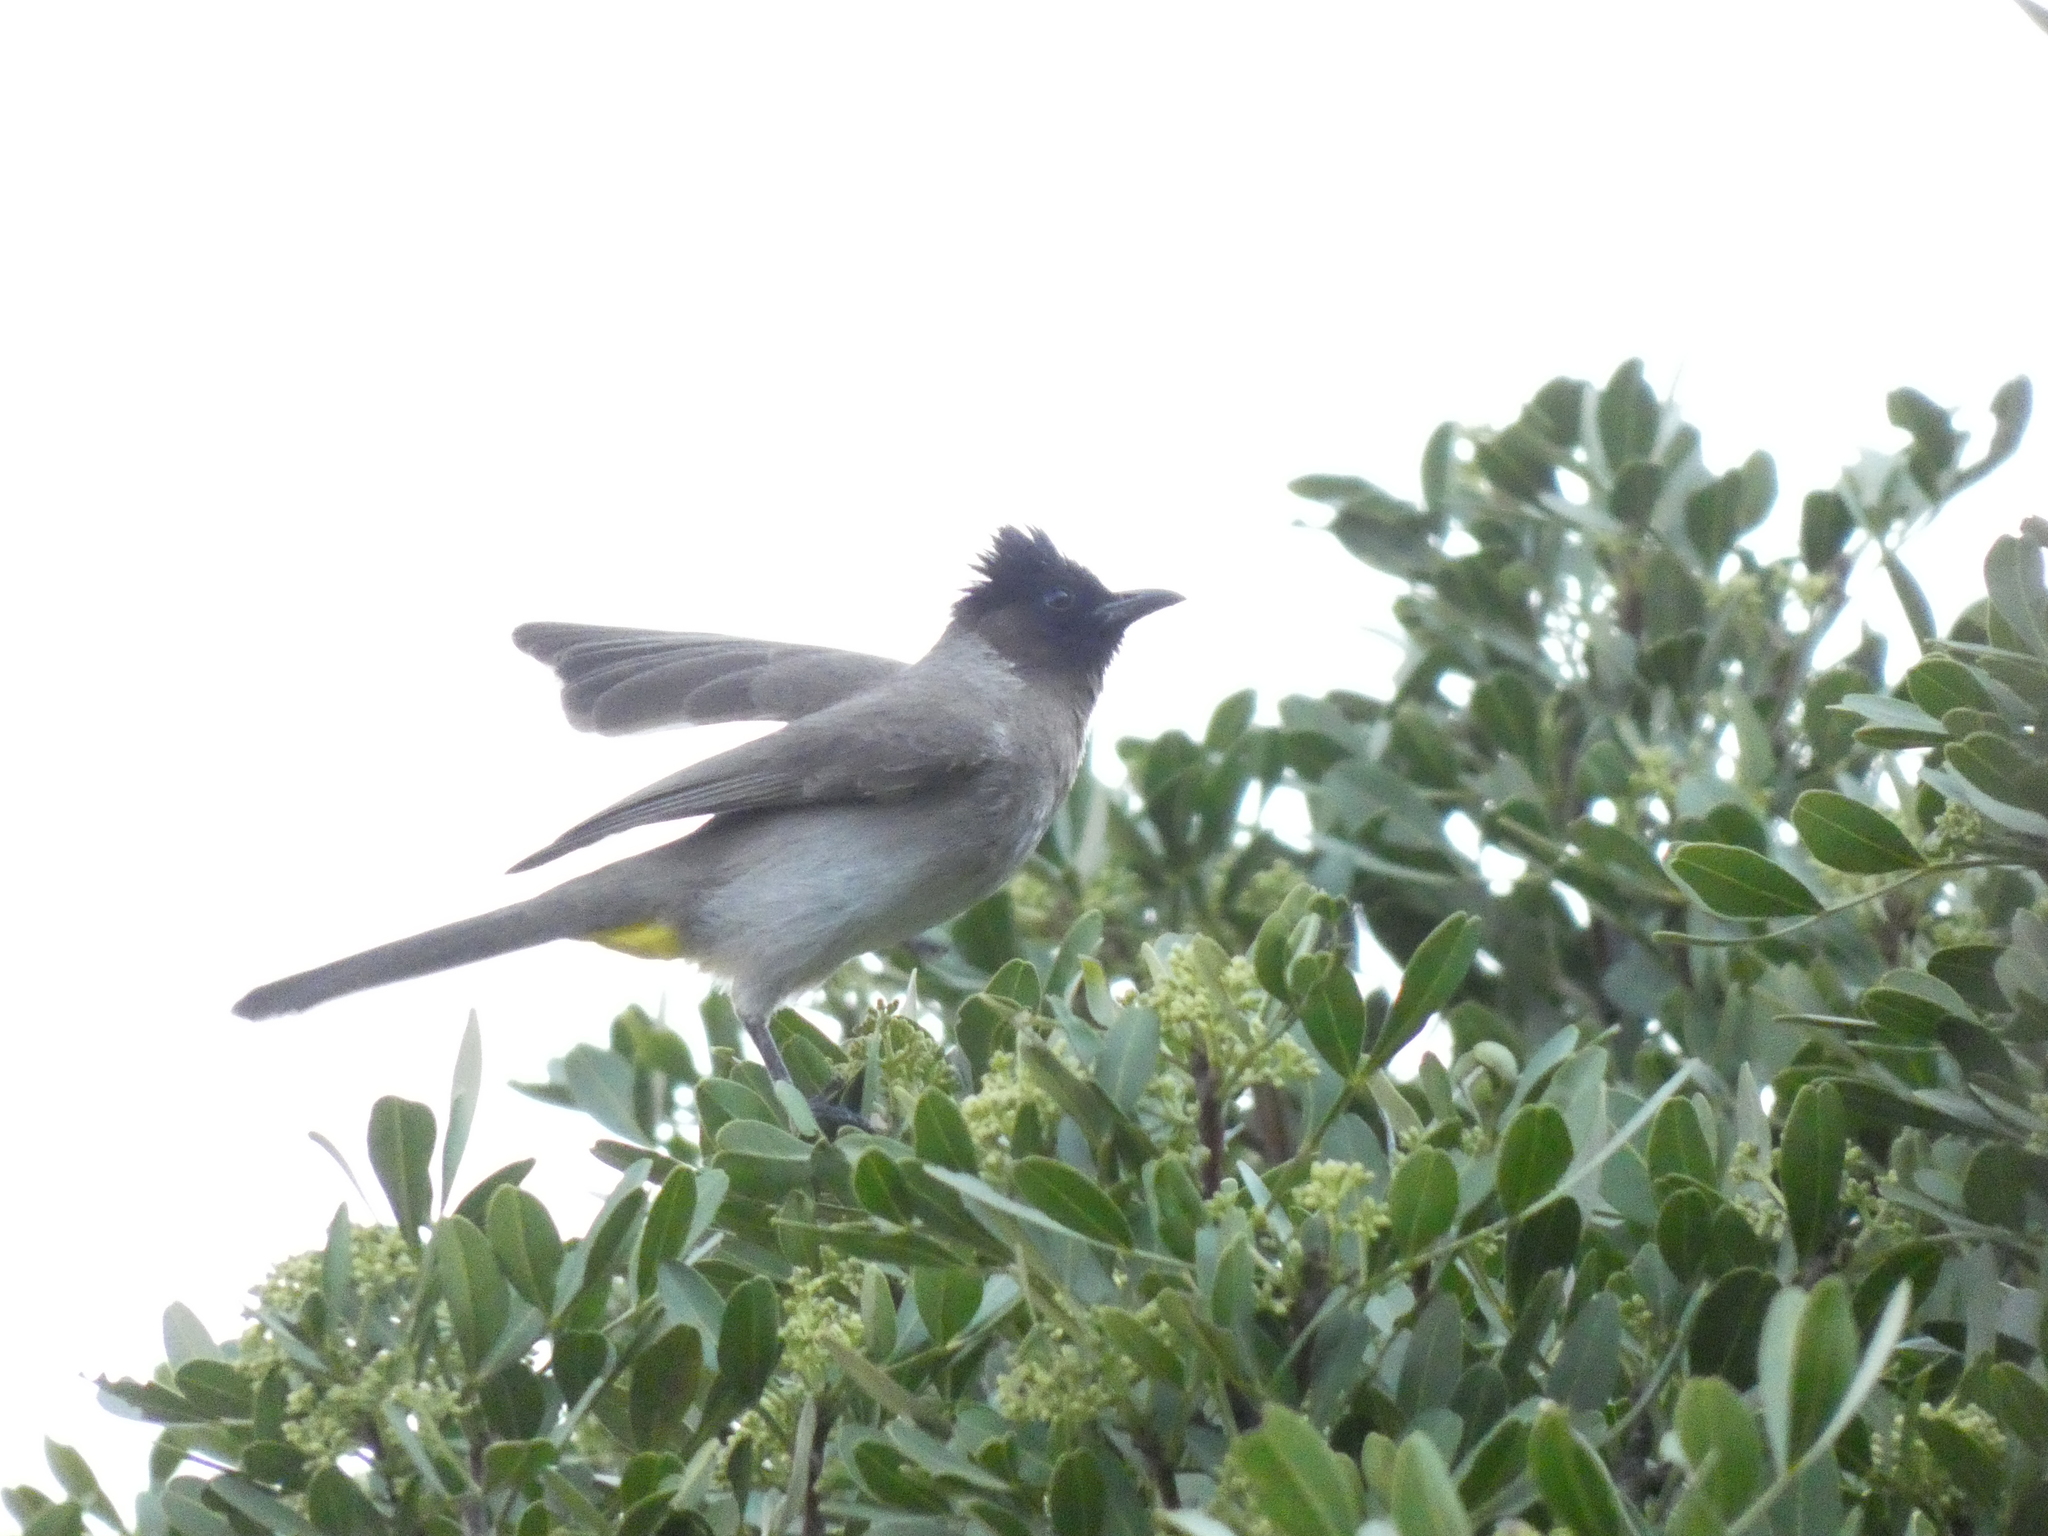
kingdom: Animalia
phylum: Chordata
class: Aves
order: Passeriformes
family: Pycnonotidae
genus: Pycnonotus
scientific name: Pycnonotus barbatus
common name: Common bulbul
